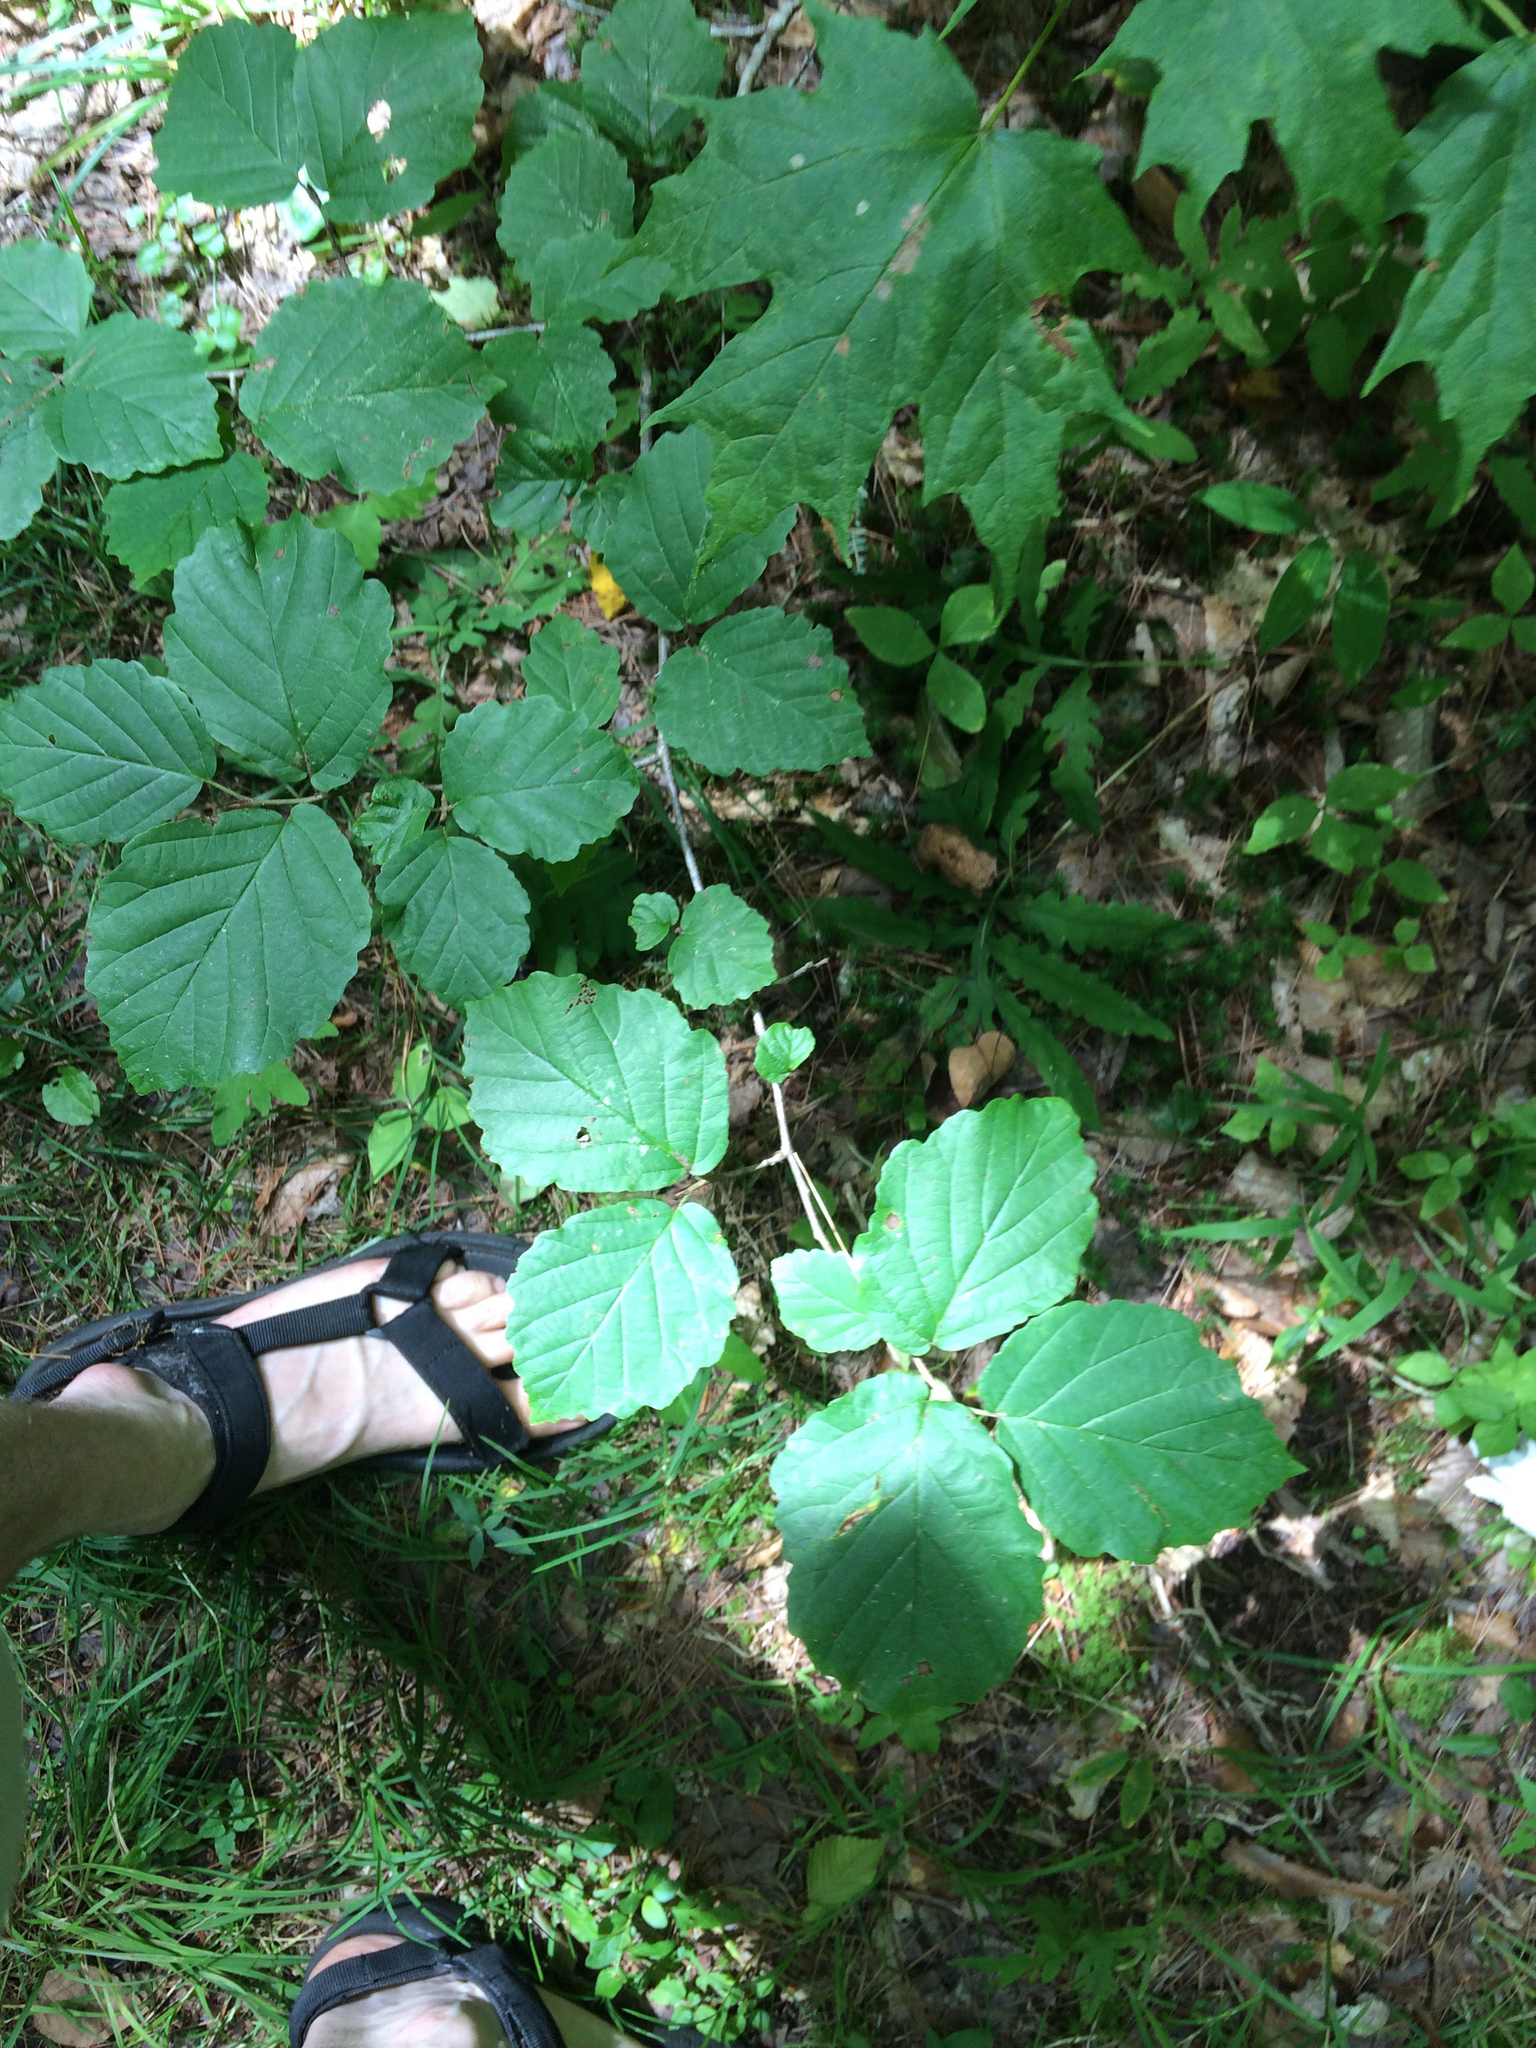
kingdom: Plantae
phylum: Tracheophyta
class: Magnoliopsida
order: Saxifragales
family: Hamamelidaceae
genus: Hamamelis
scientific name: Hamamelis virginiana
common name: Witch-hazel
